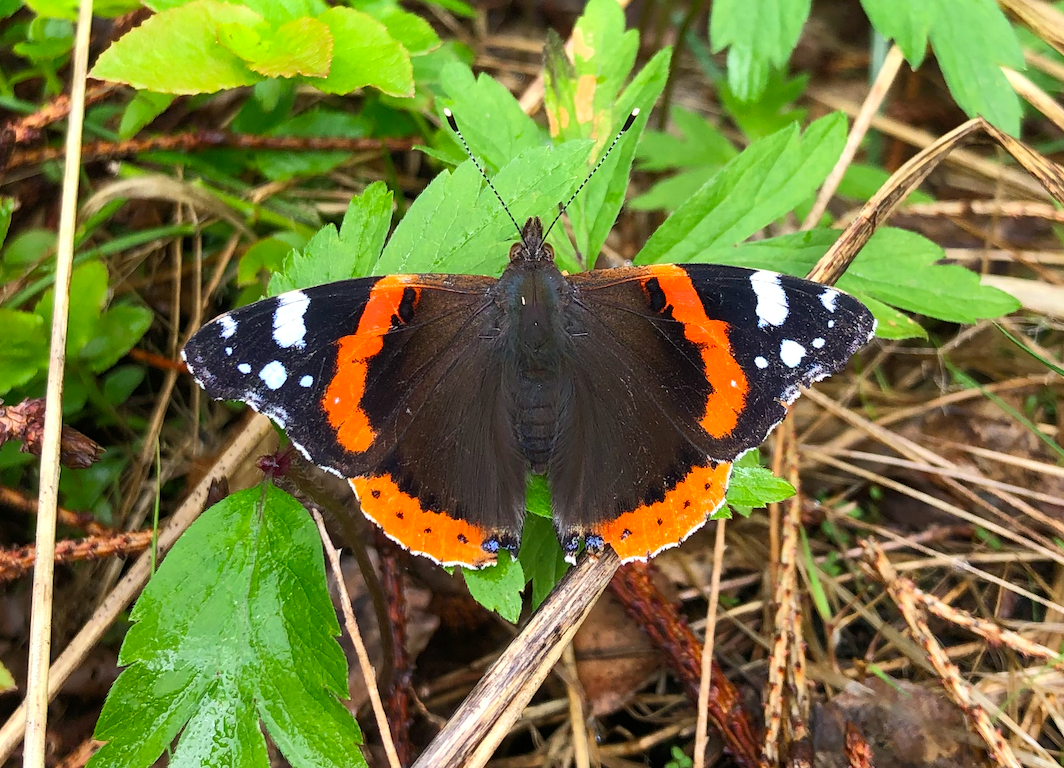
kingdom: Animalia
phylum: Arthropoda
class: Insecta
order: Lepidoptera
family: Nymphalidae
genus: Vanessa
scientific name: Vanessa atalanta
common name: Red admiral
